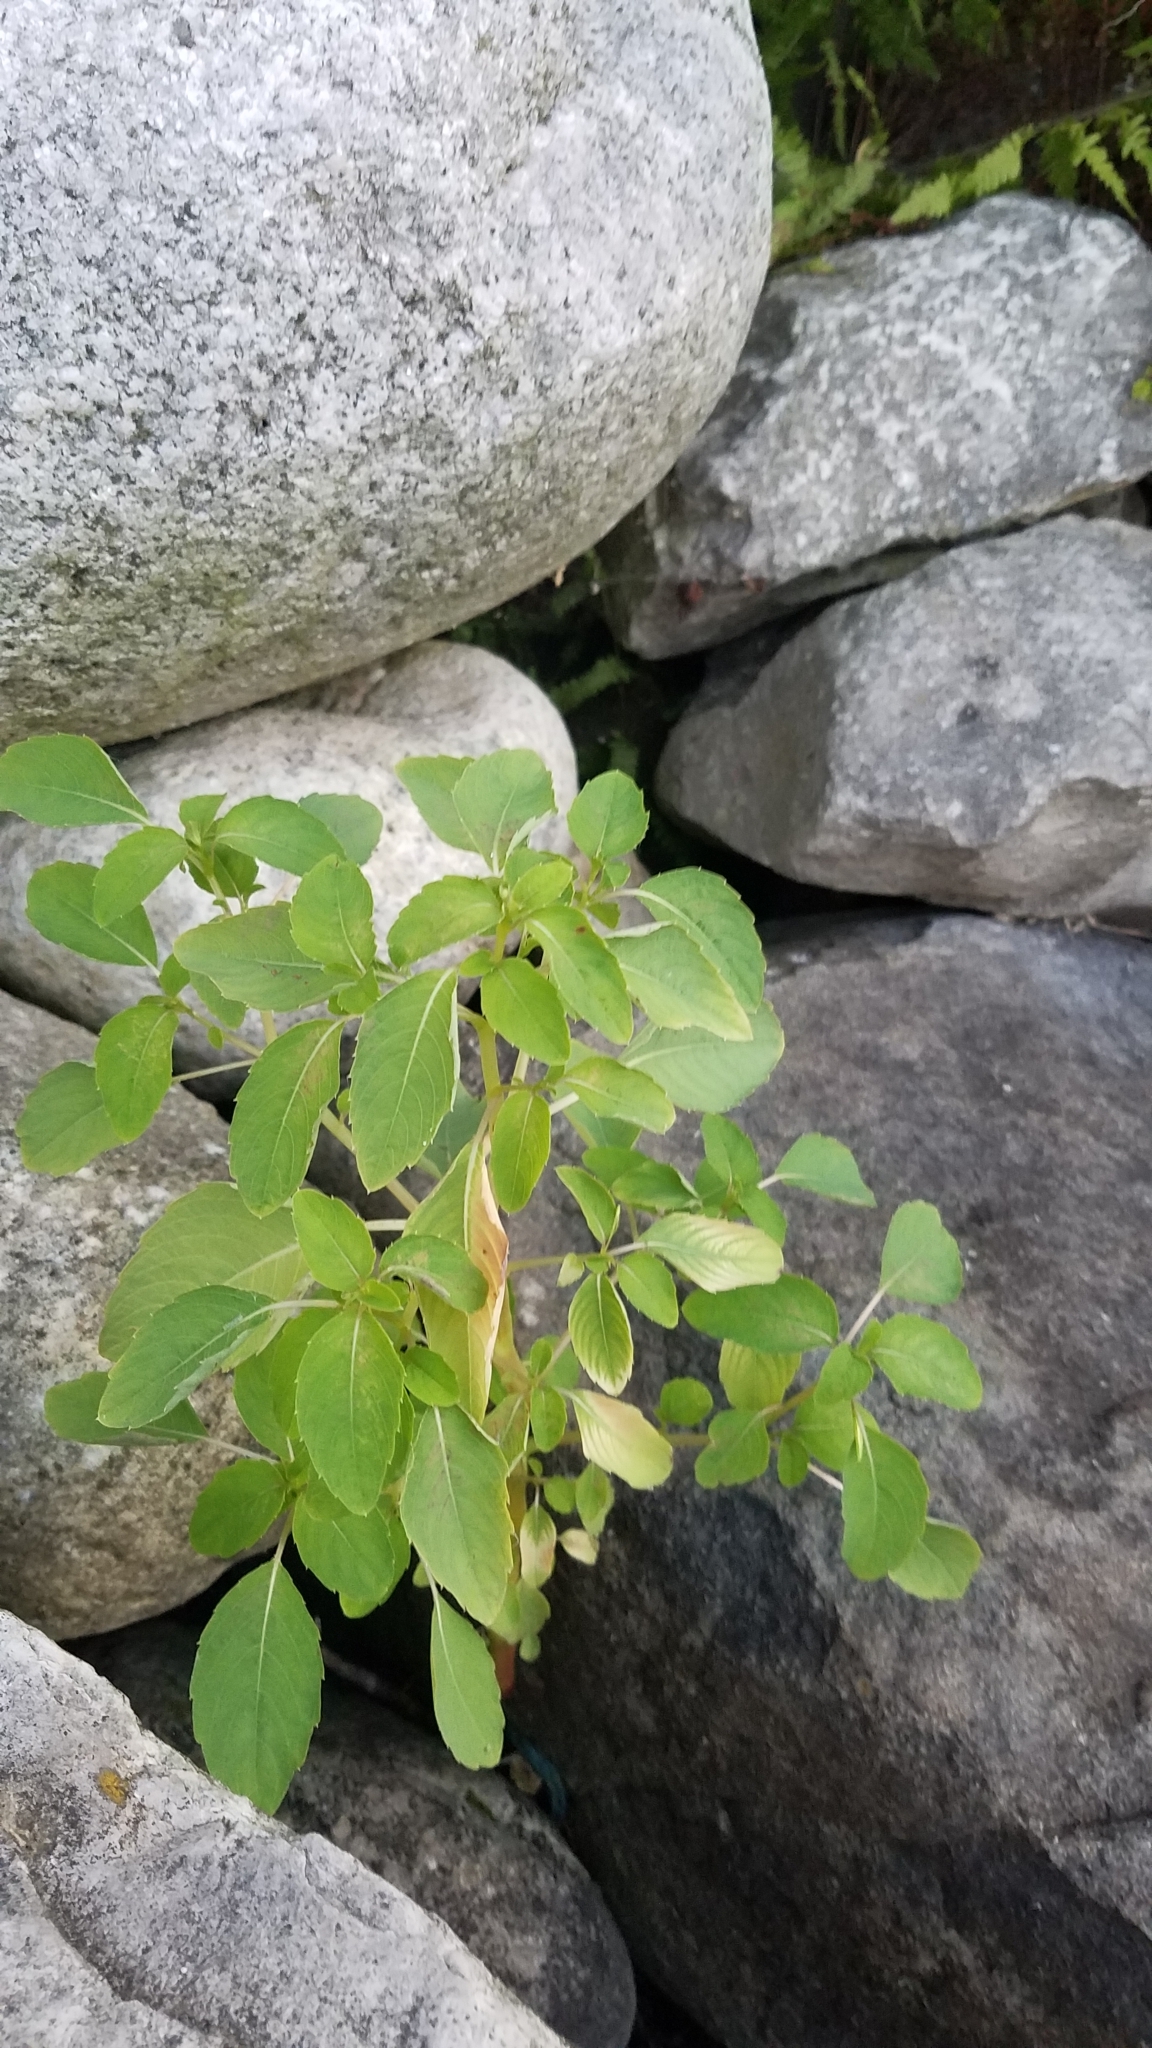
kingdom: Plantae
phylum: Tracheophyta
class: Magnoliopsida
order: Ericales
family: Balsaminaceae
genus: Impatiens
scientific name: Impatiens capensis
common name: Orange balsam
